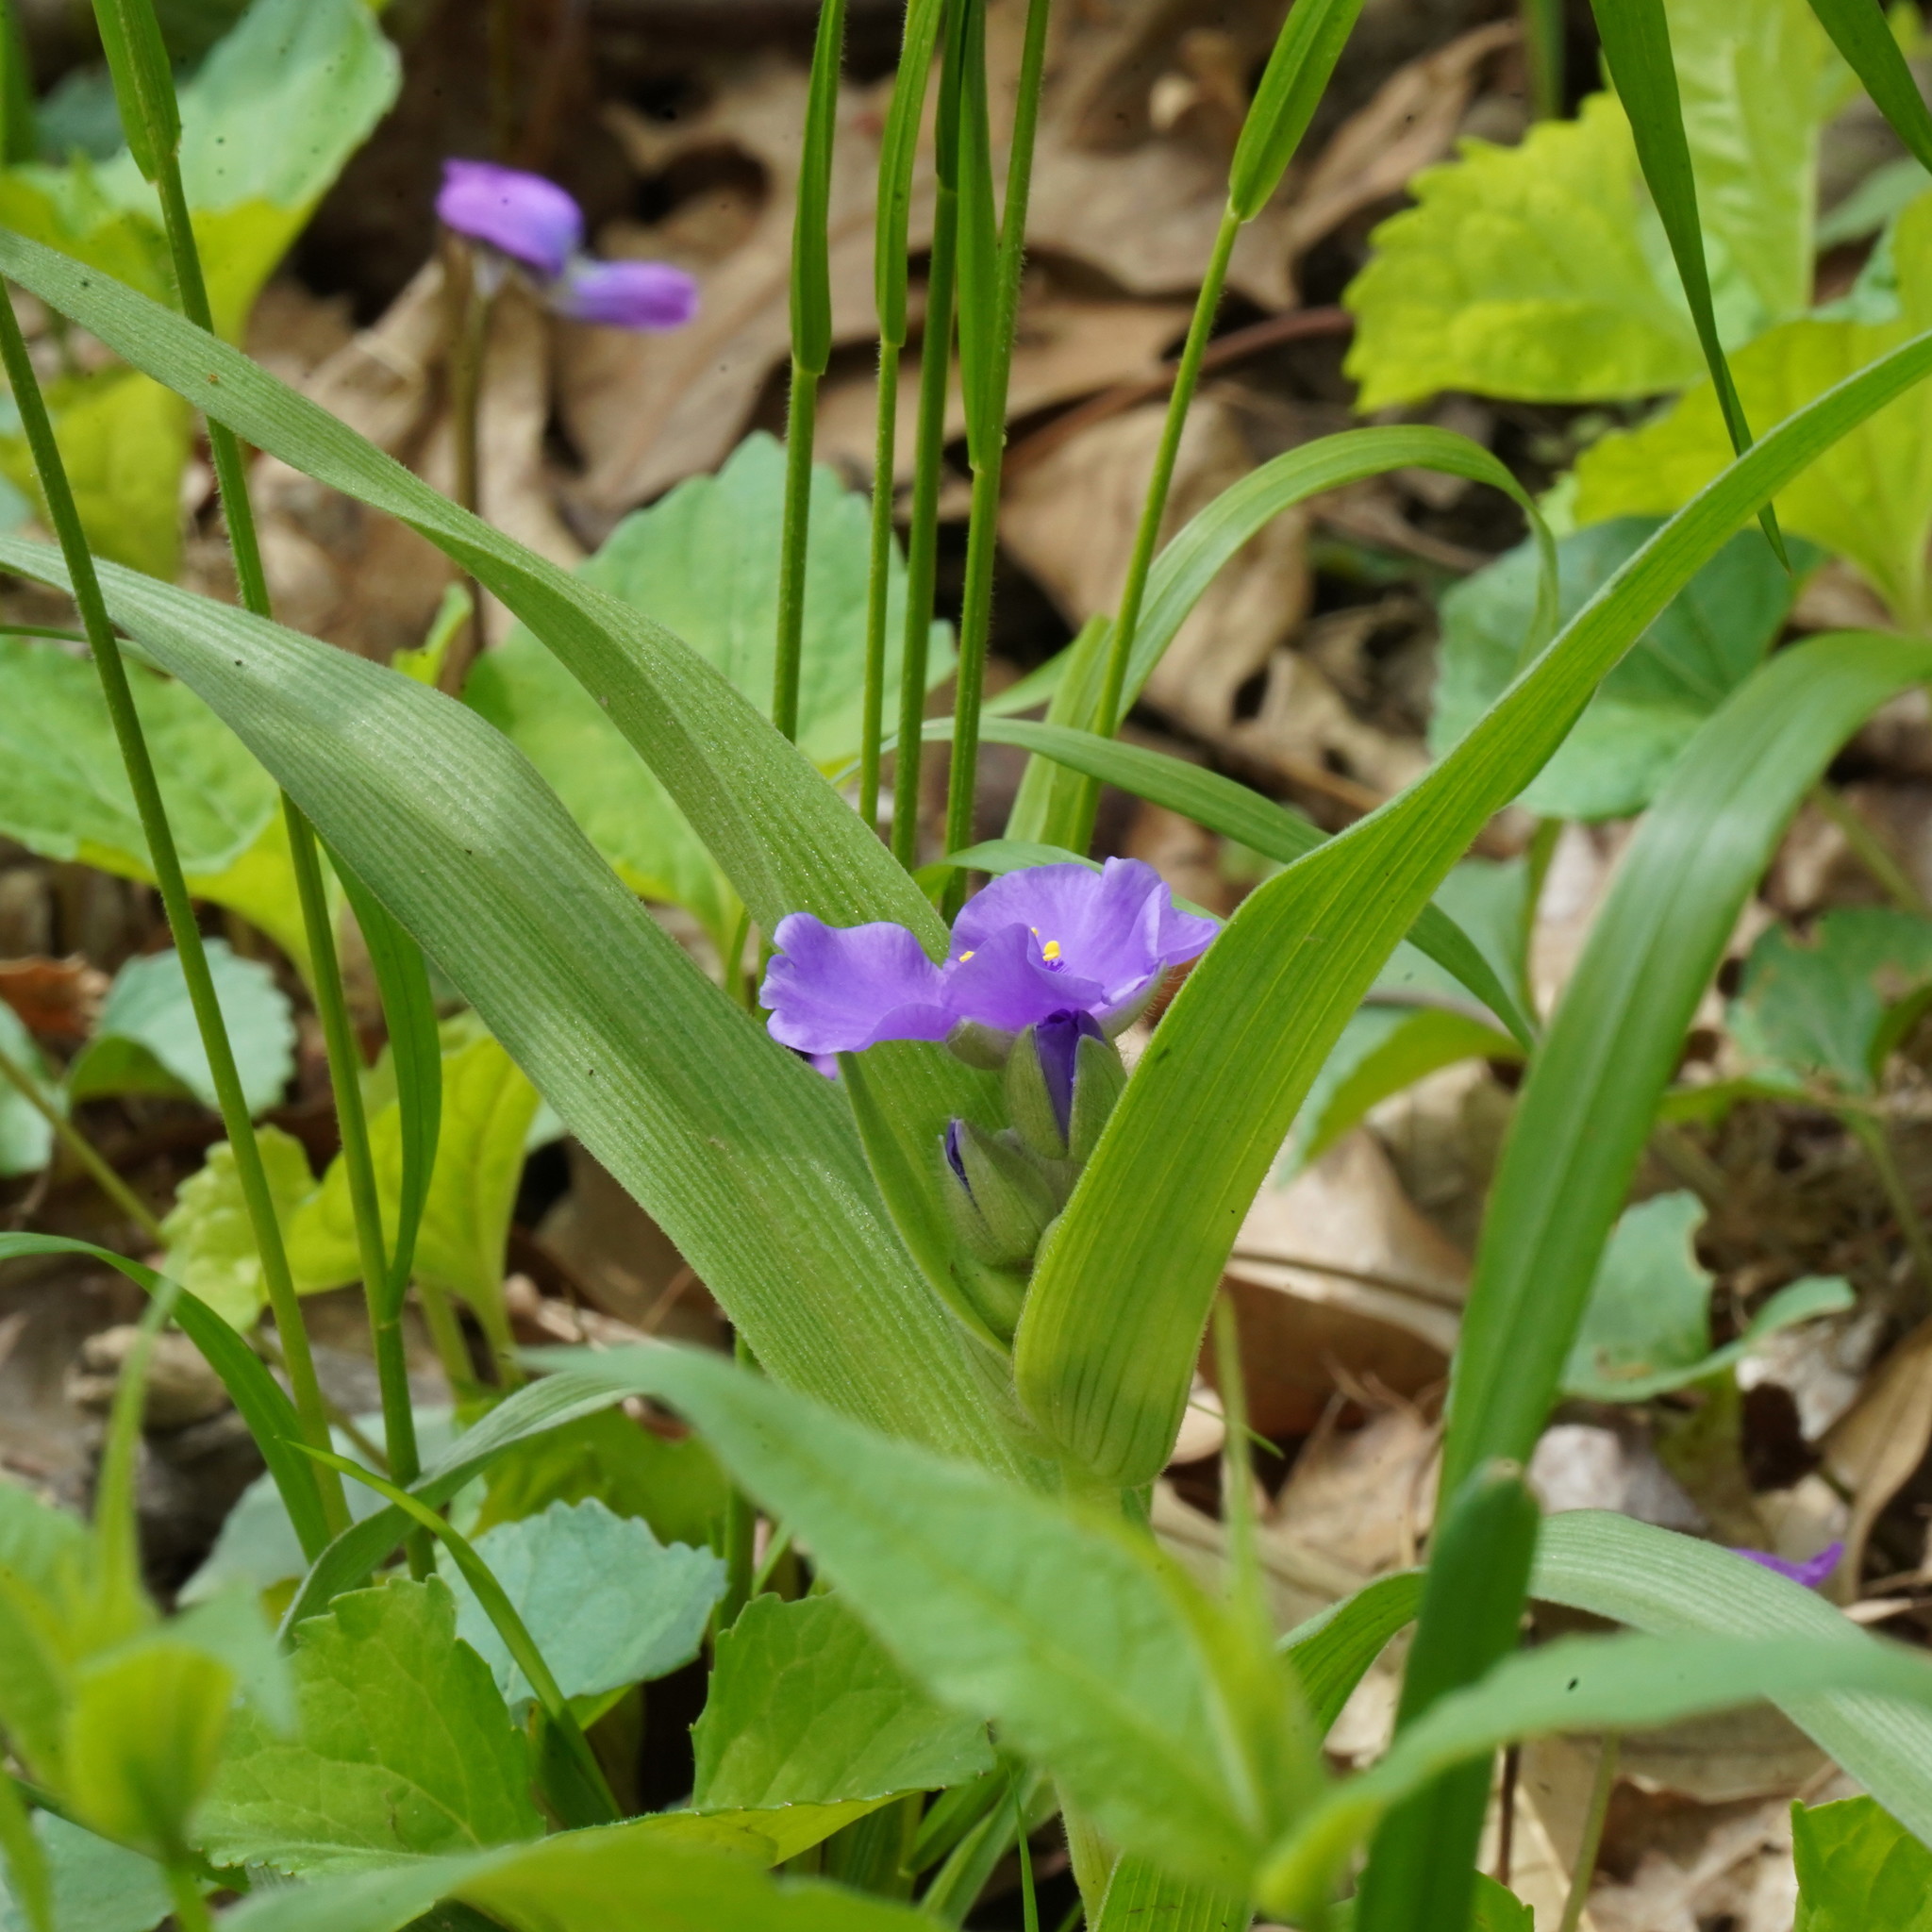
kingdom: Plantae
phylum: Tracheophyta
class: Liliopsida
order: Commelinales
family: Commelinaceae
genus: Tradescantia
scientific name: Tradescantia virginiana
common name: Spiderwort
